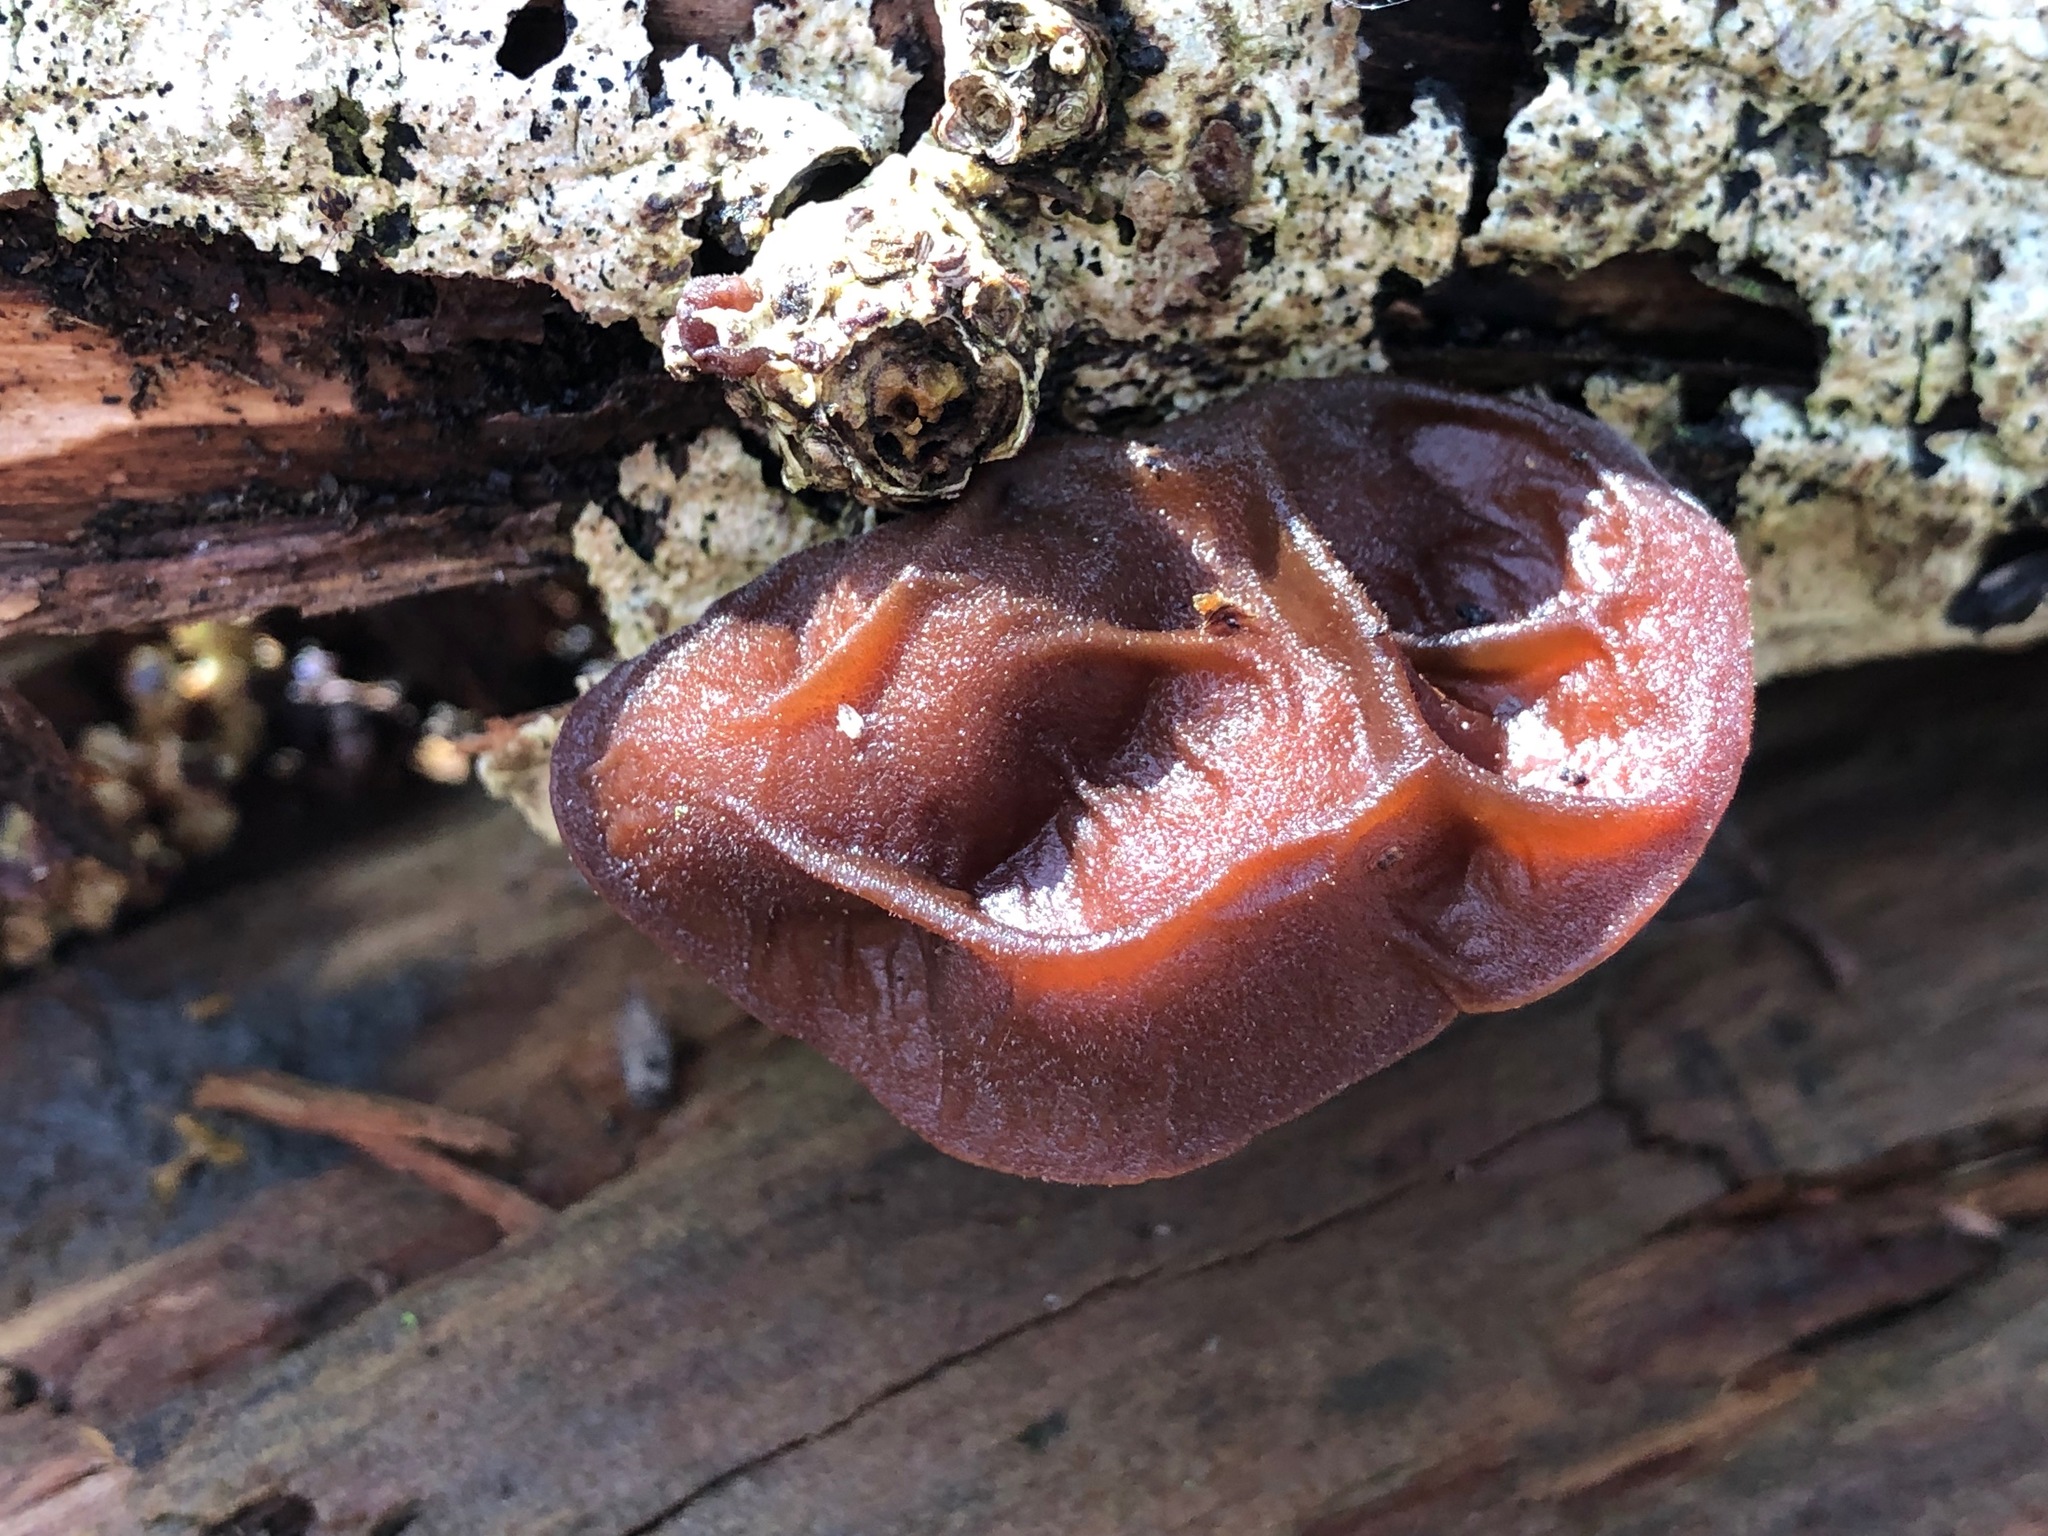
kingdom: Fungi
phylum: Basidiomycota
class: Agaricomycetes
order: Auriculariales
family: Auriculariaceae
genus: Auricularia
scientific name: Auricularia auricula-judae
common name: Jelly ear
